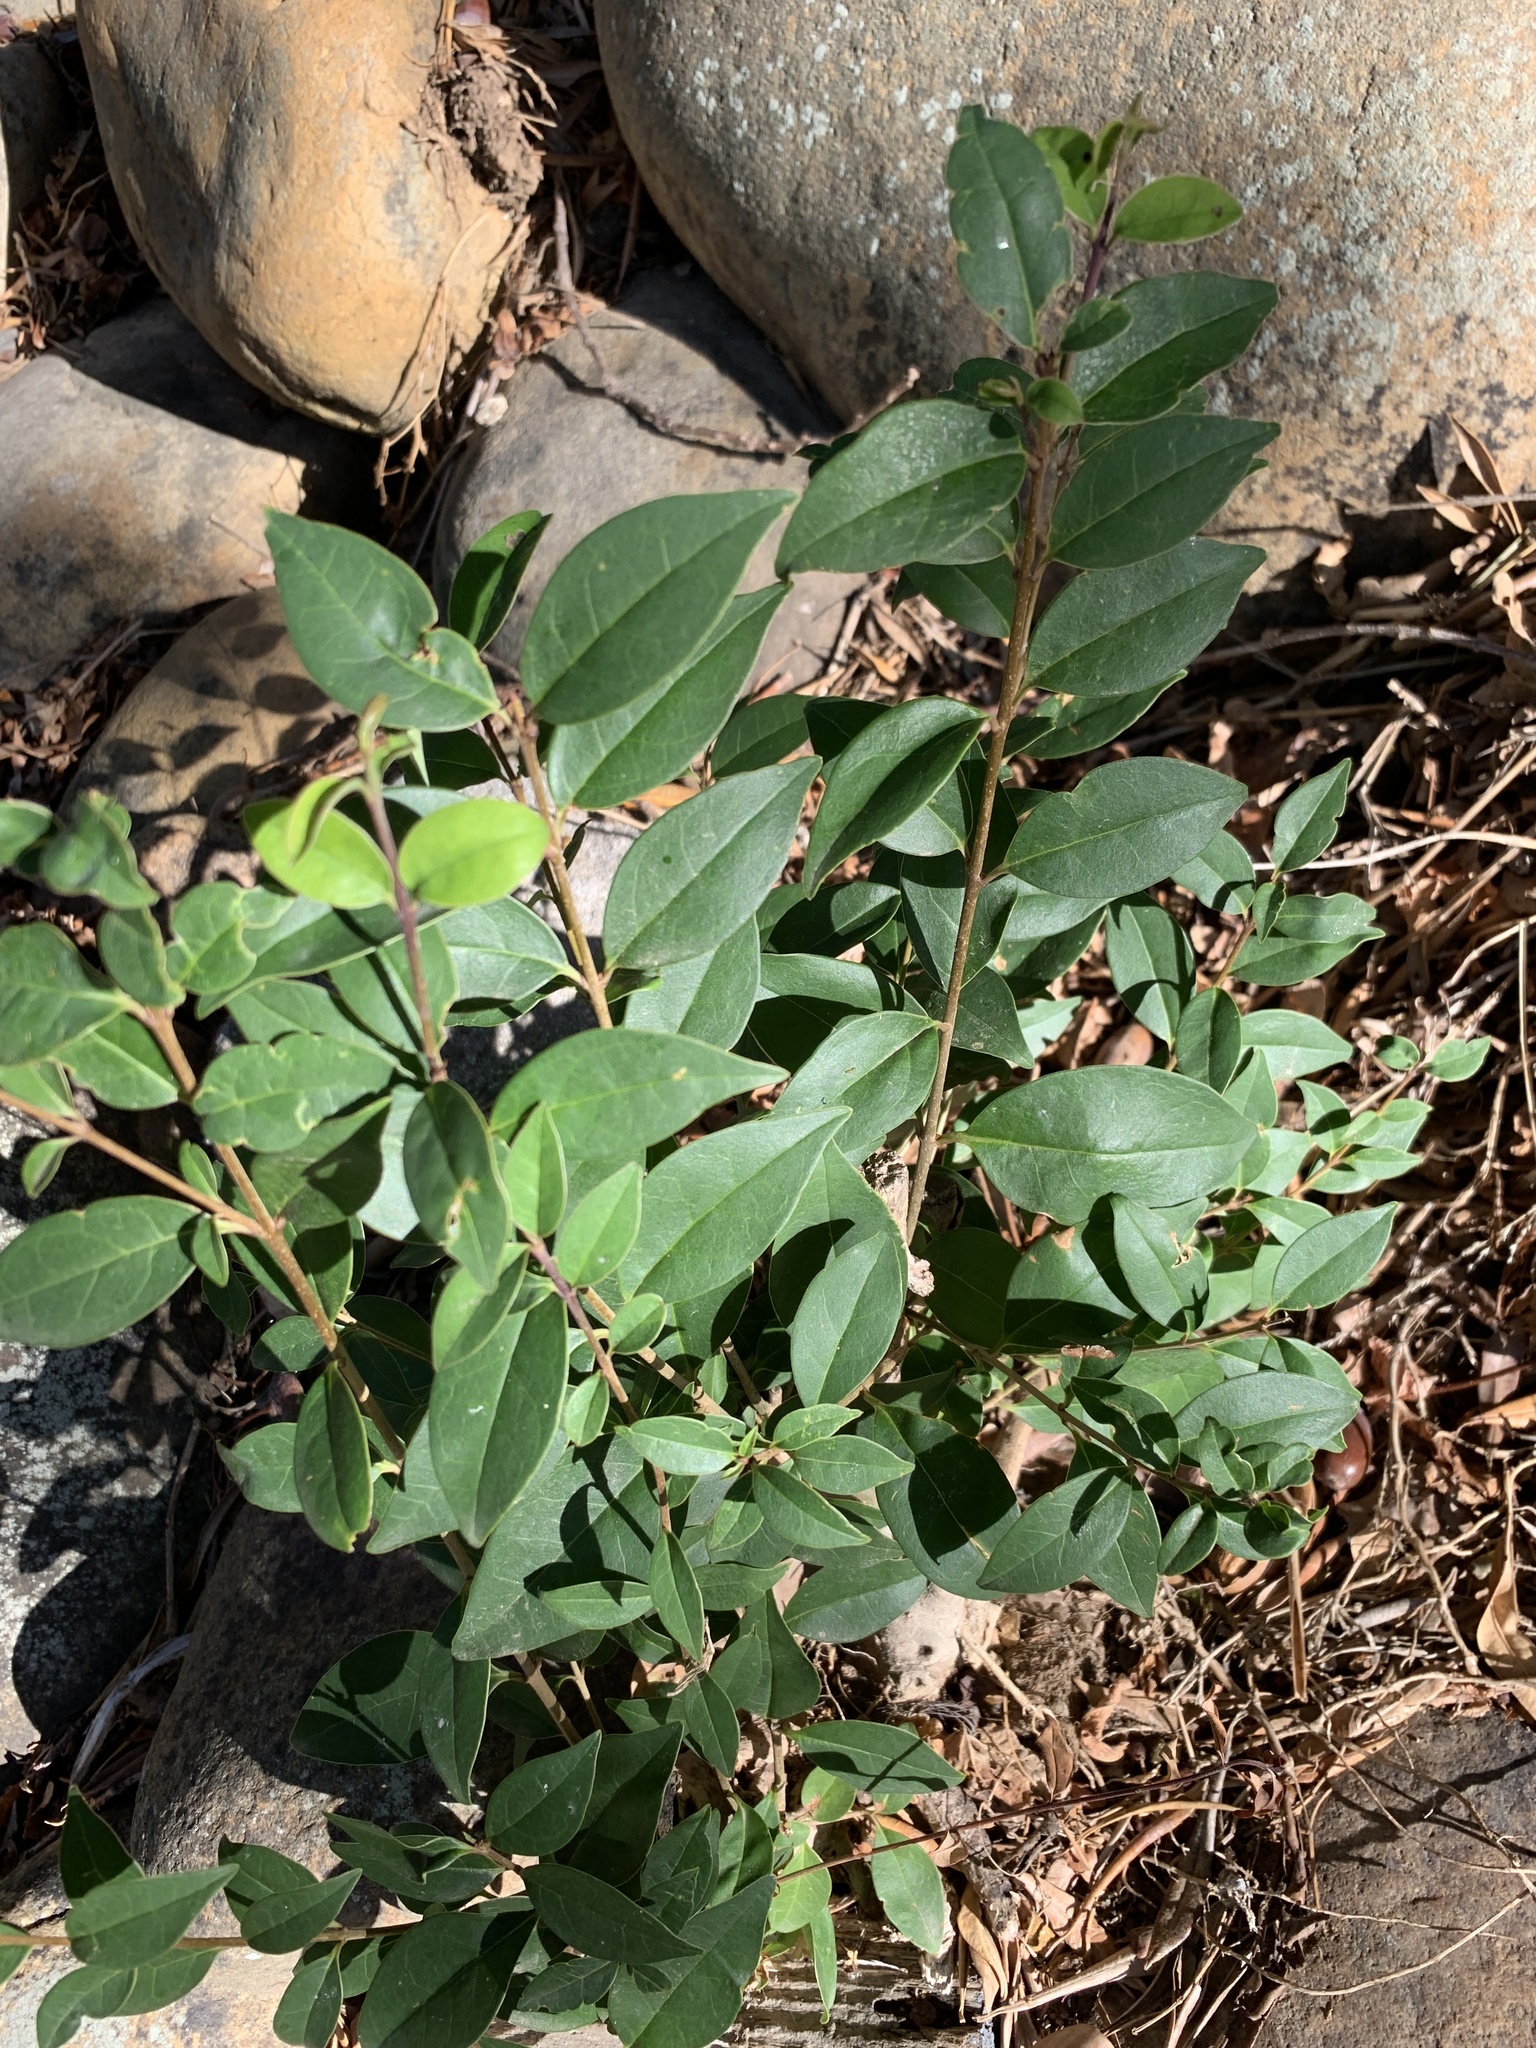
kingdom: Plantae
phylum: Tracheophyta
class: Magnoliopsida
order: Lamiales
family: Oleaceae
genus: Ligustrum
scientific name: Ligustrum lucidum
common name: Glossy privet
